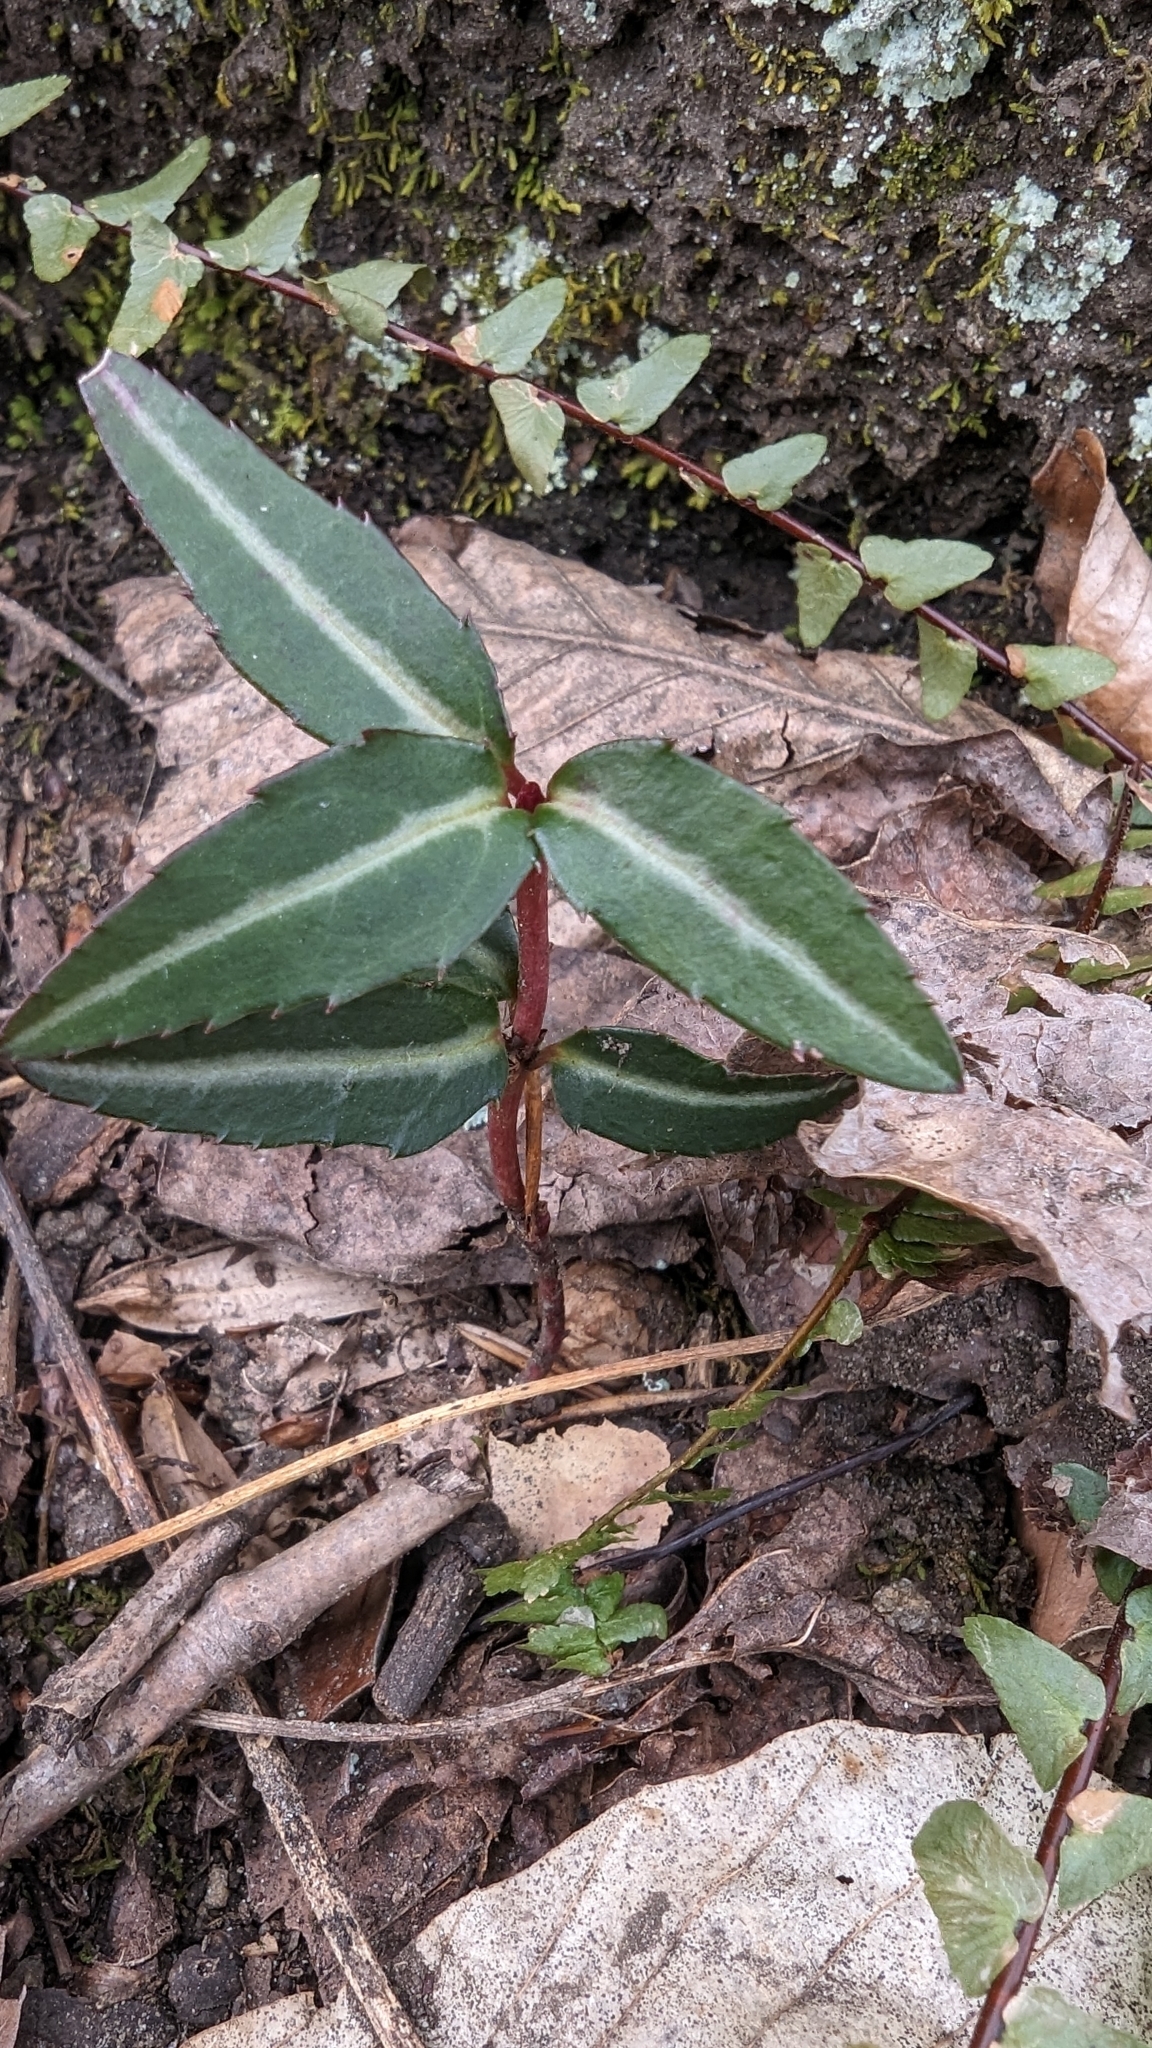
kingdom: Plantae
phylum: Tracheophyta
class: Magnoliopsida
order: Ericales
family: Ericaceae
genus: Chimaphila
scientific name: Chimaphila maculata
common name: Spotted pipsissewa
